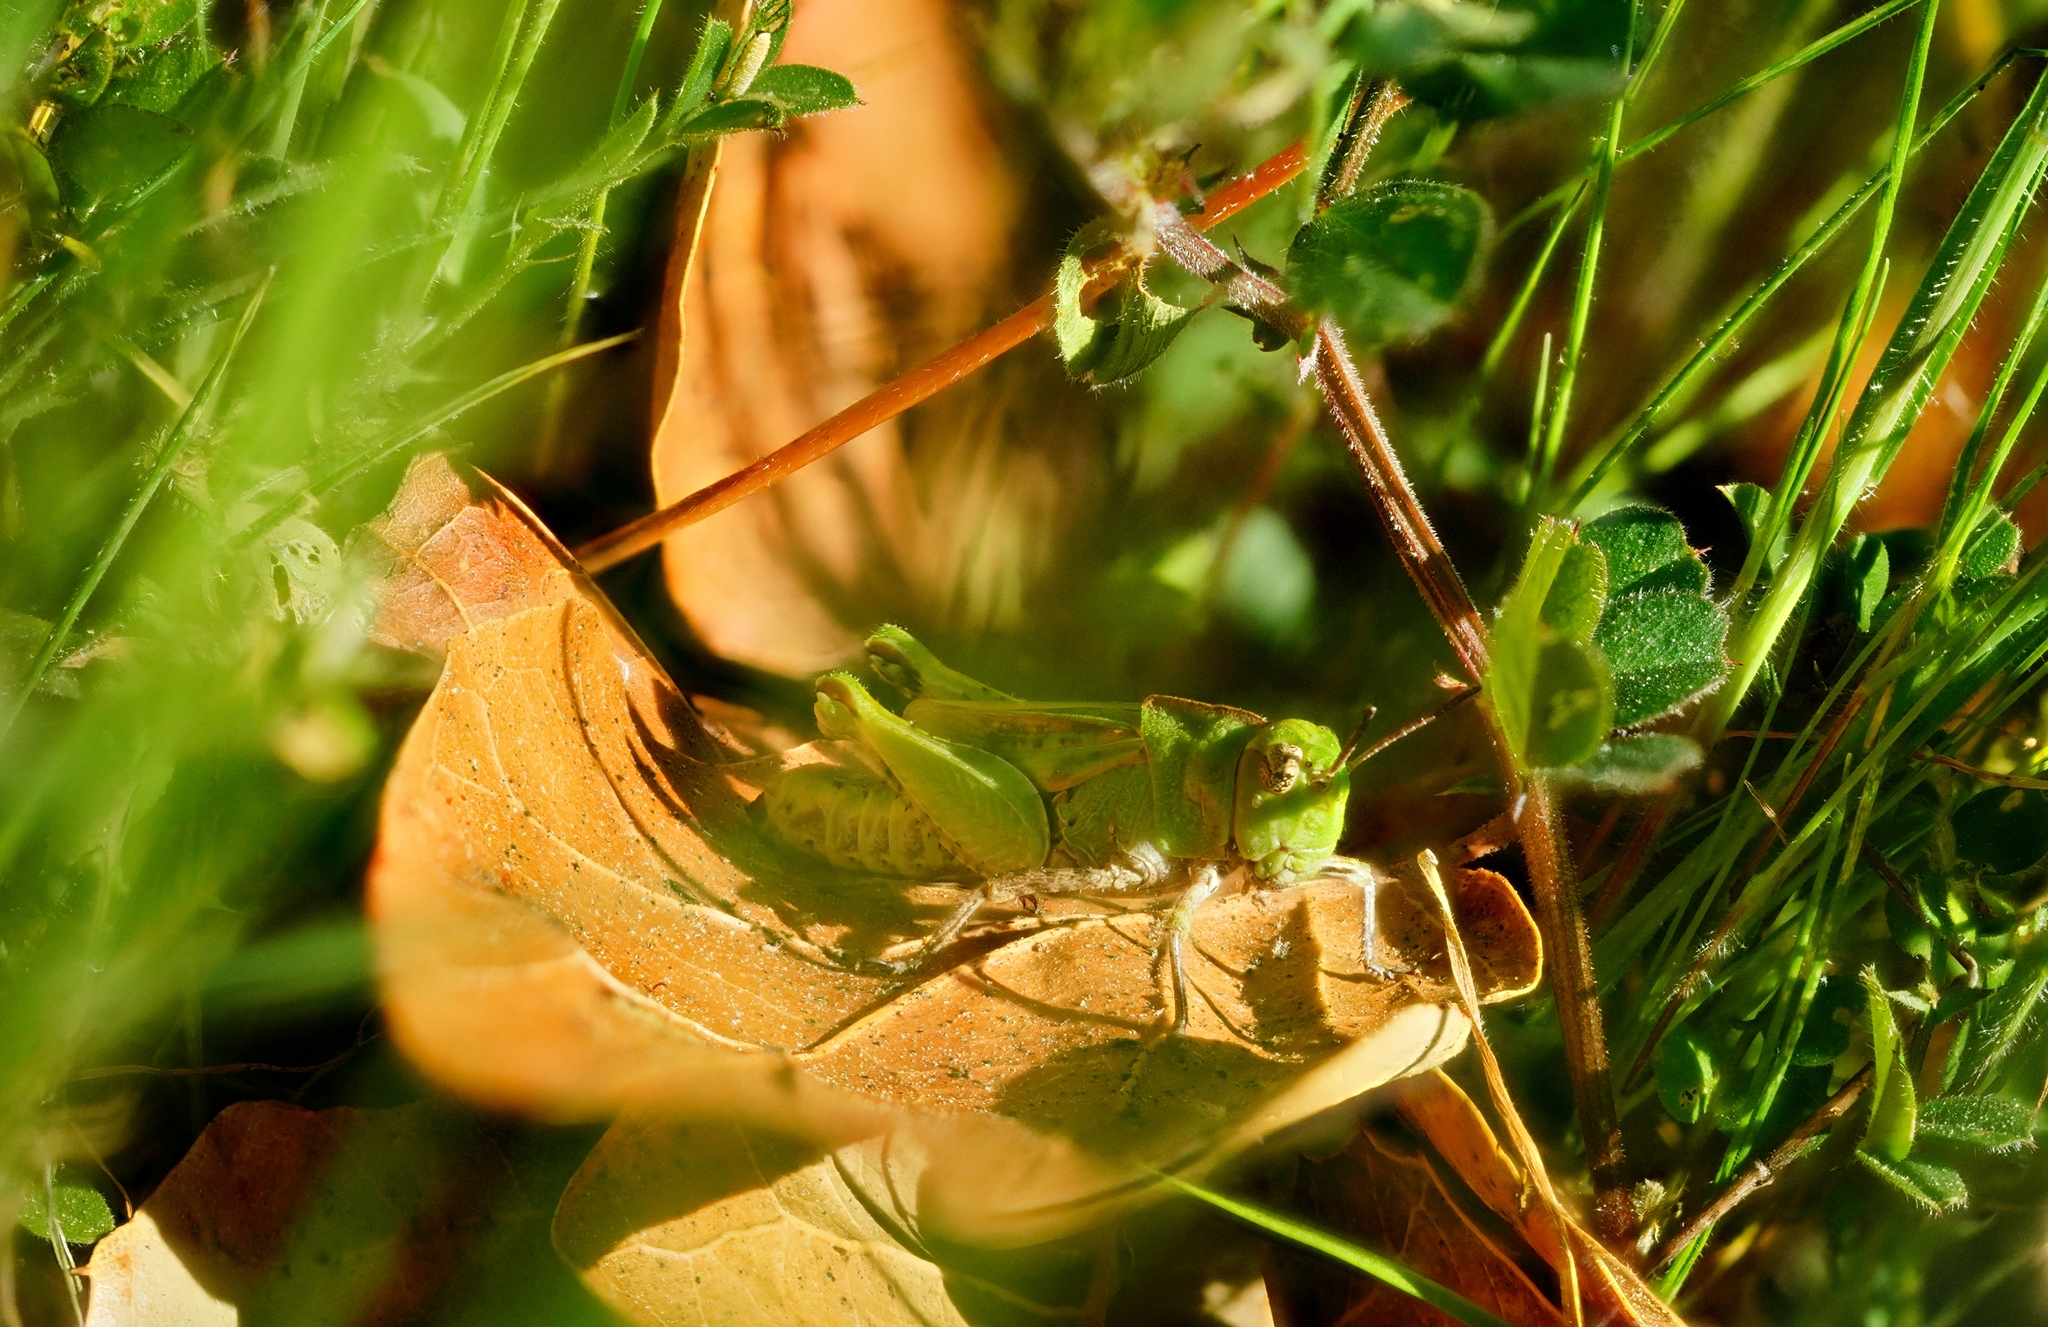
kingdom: Animalia
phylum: Arthropoda
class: Insecta
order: Orthoptera
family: Acrididae
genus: Chimarocephala
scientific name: Chimarocephala pacifica
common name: Painted meadow grasshopper
